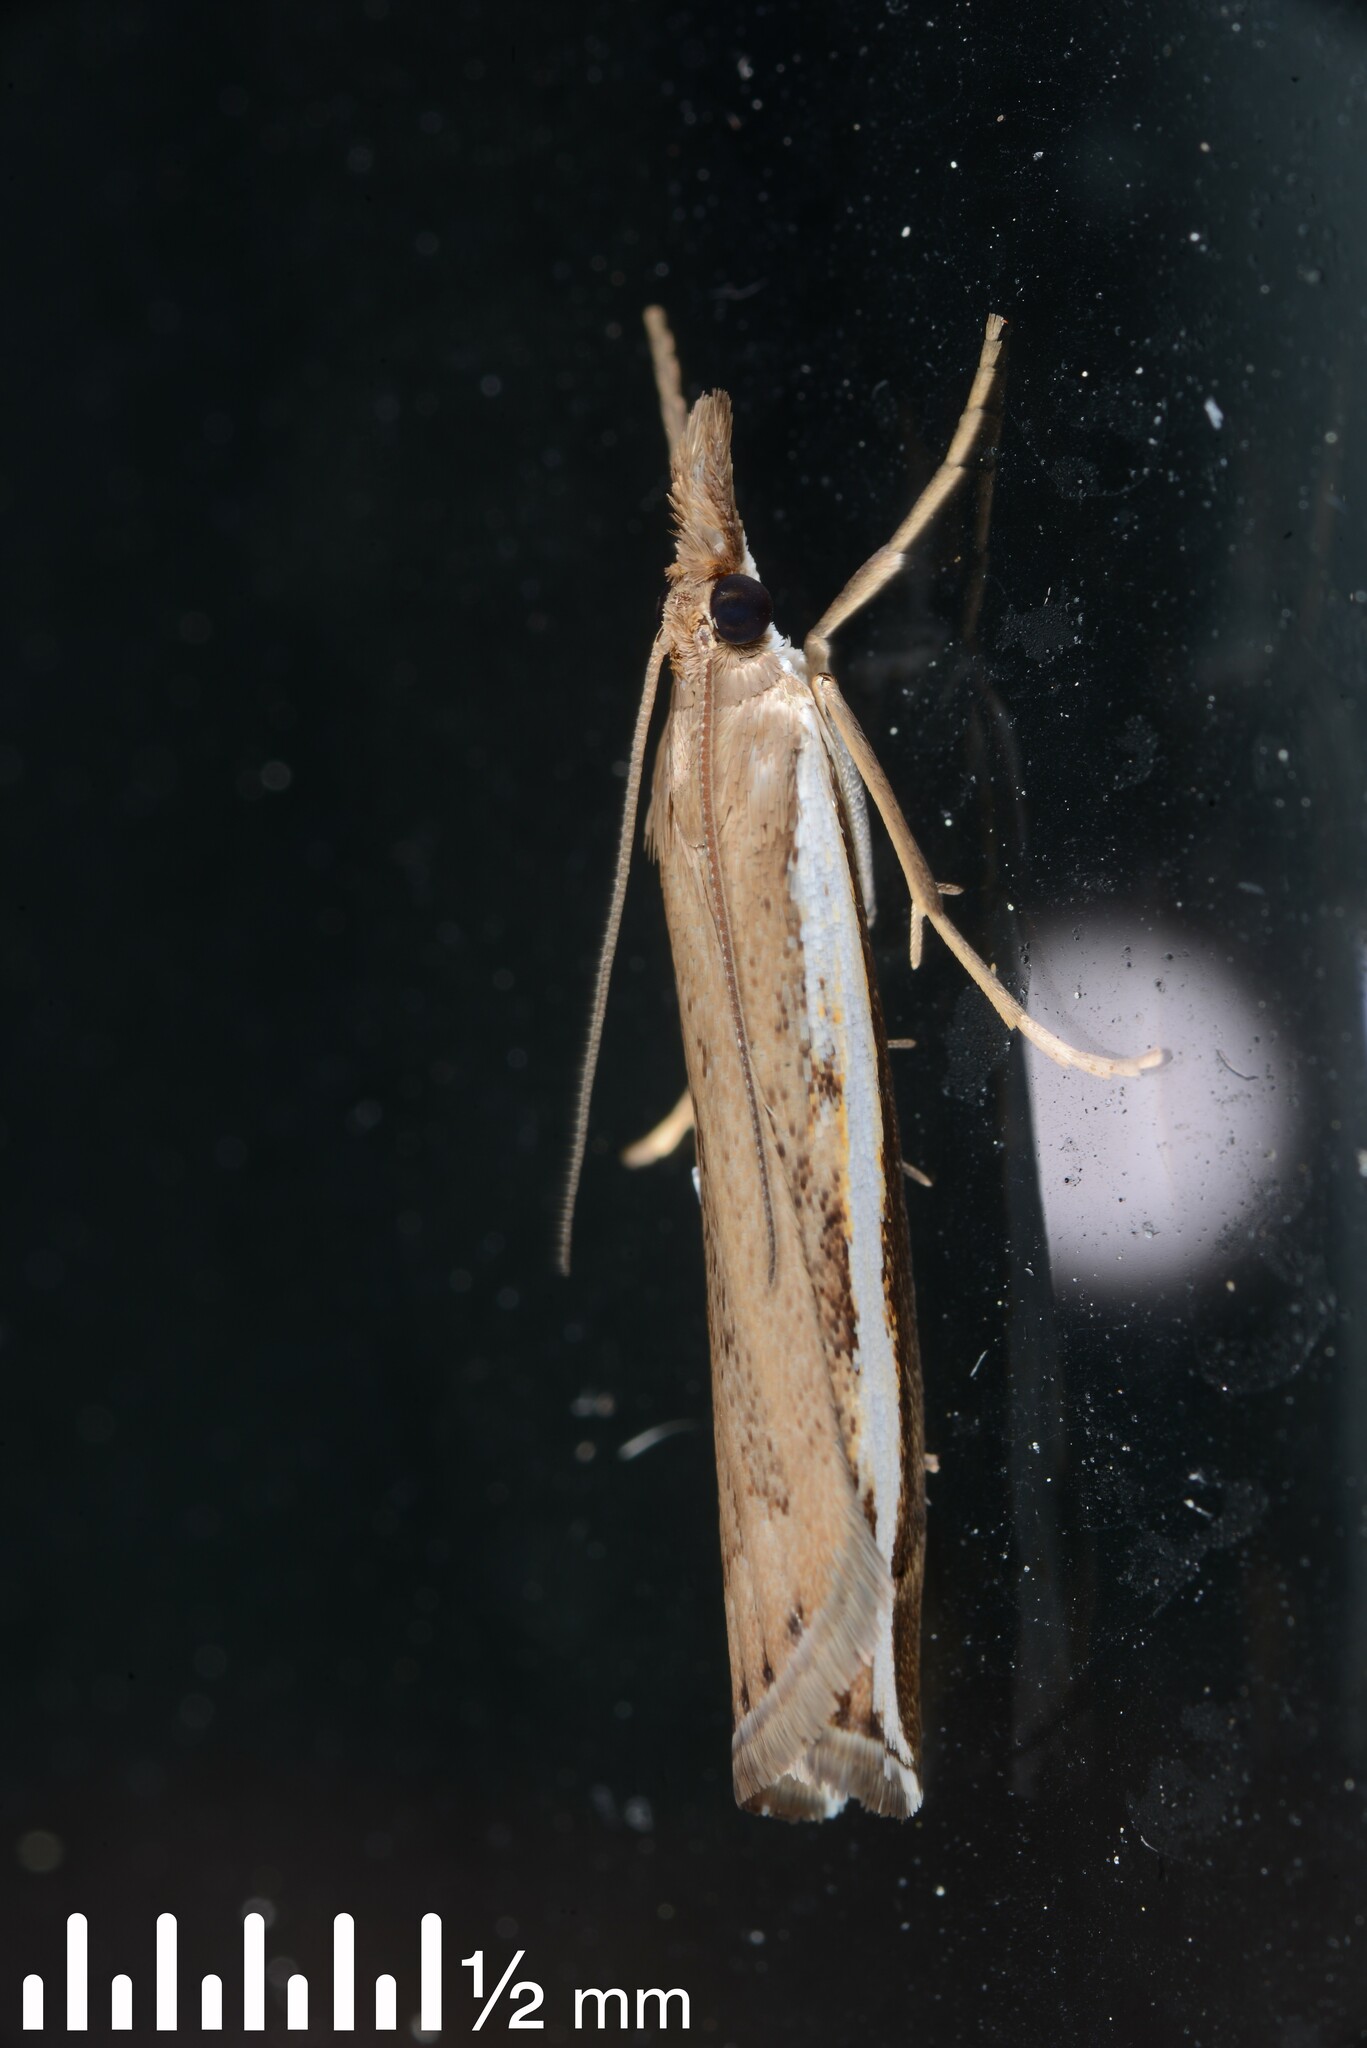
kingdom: Animalia
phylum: Arthropoda
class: Insecta
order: Lepidoptera
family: Crambidae
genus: Orocrambus
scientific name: Orocrambus flexuosellus
